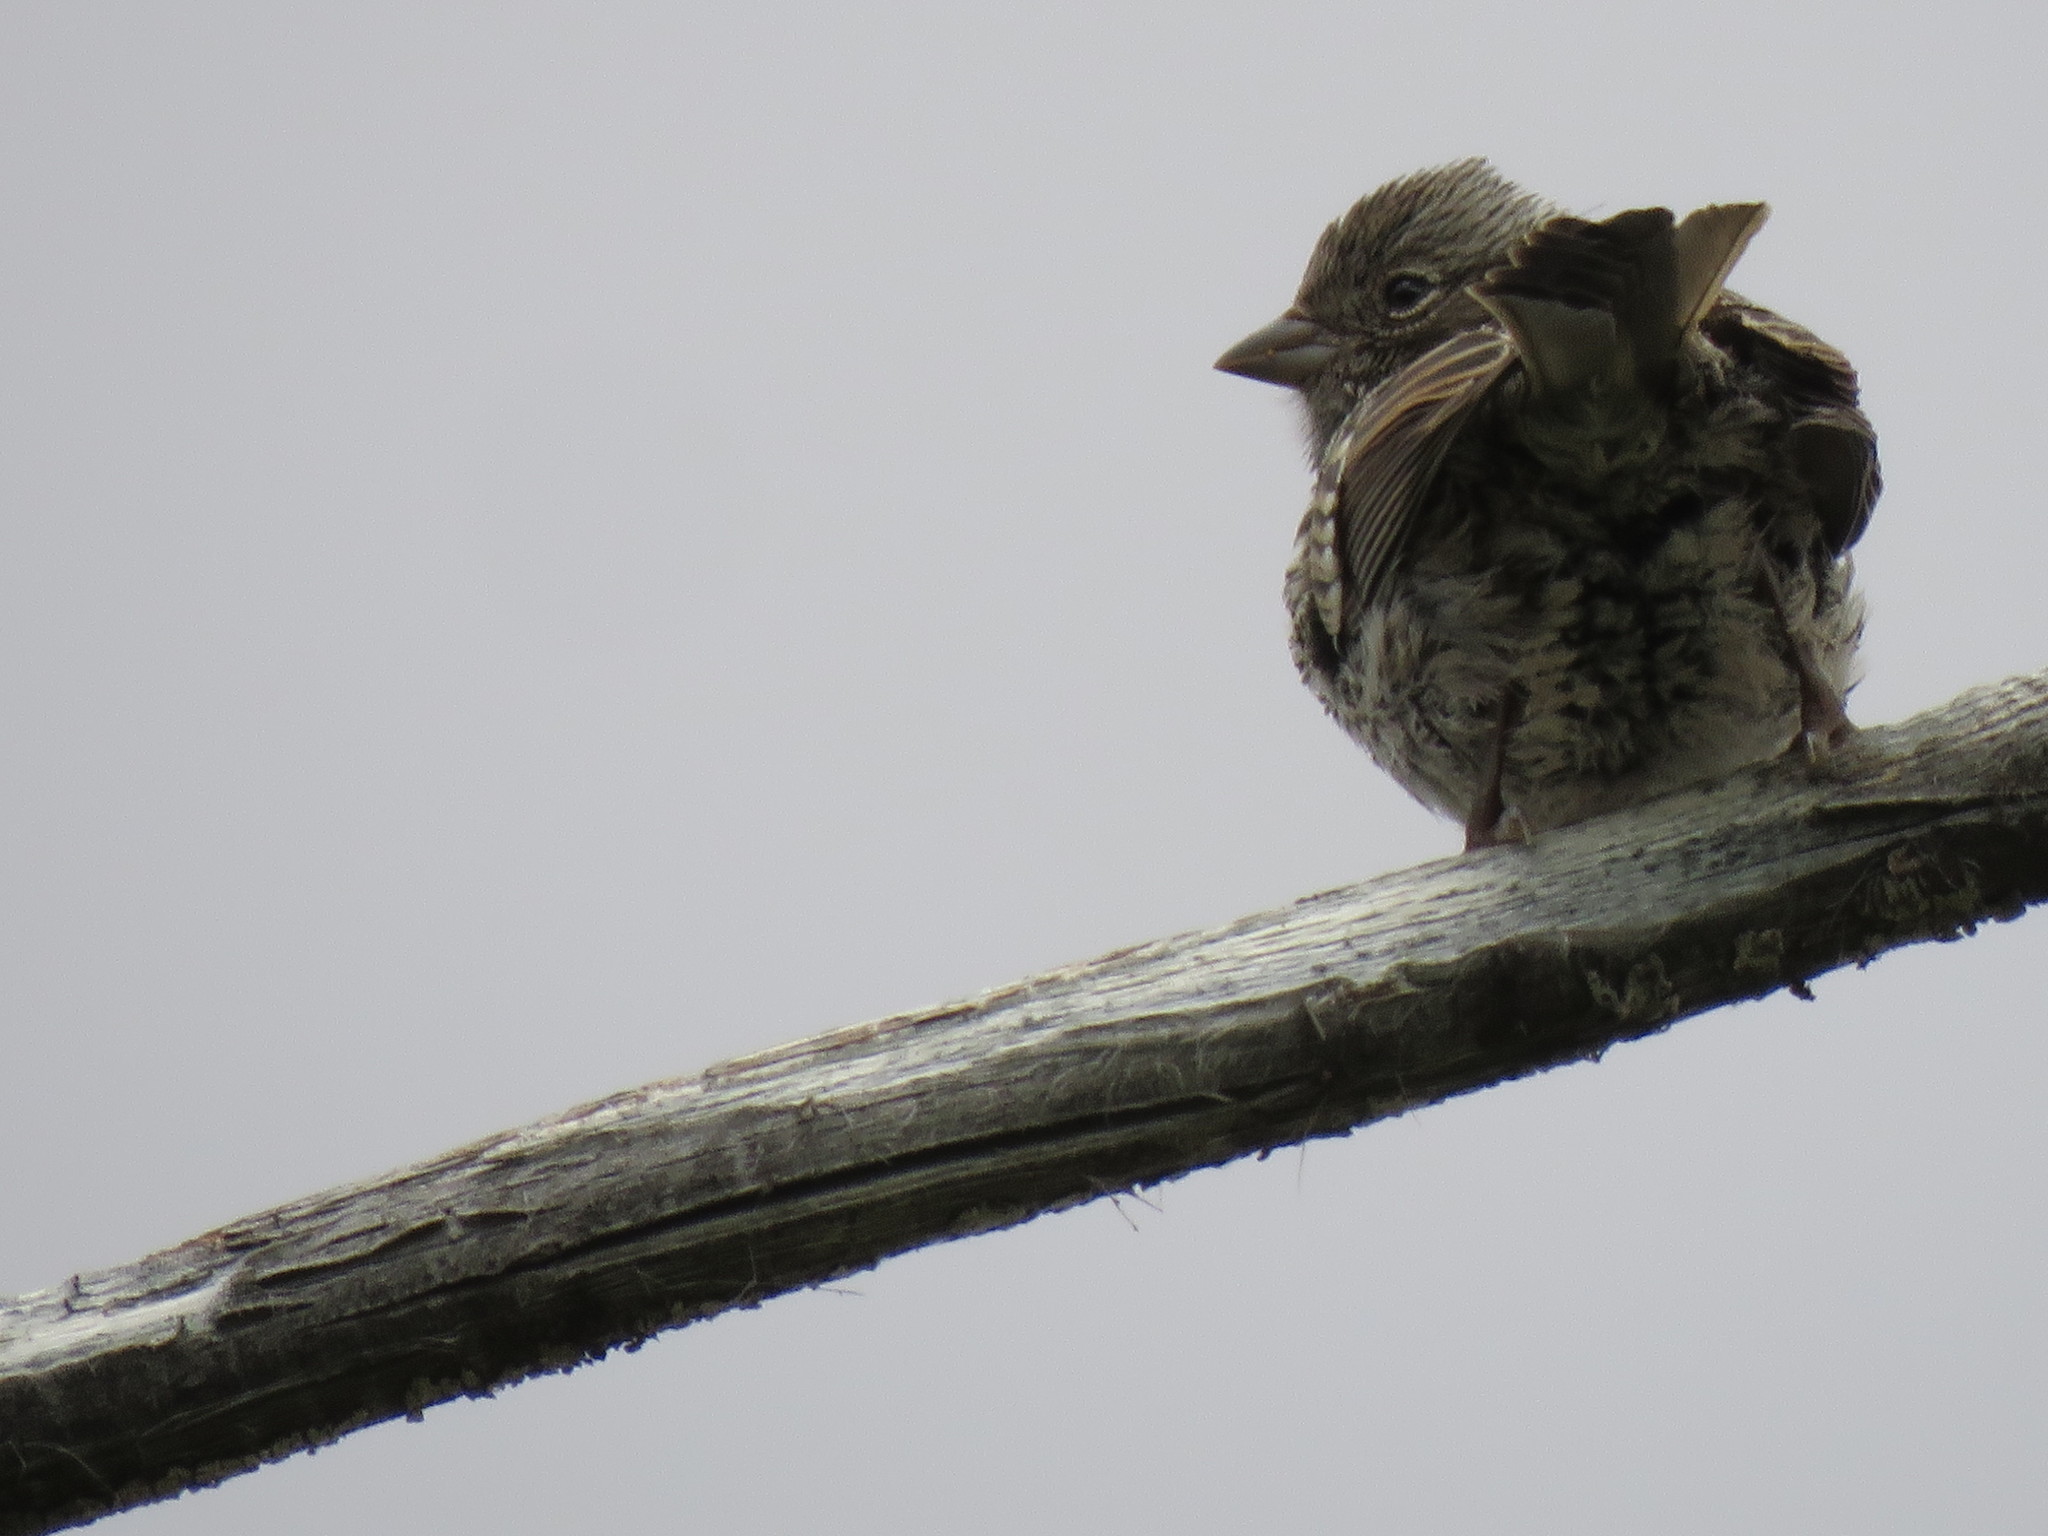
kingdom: Animalia
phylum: Chordata
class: Aves
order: Passeriformes
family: Passerellidae
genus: Zonotrichia
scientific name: Zonotrichia capensis
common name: Rufous-collared sparrow
